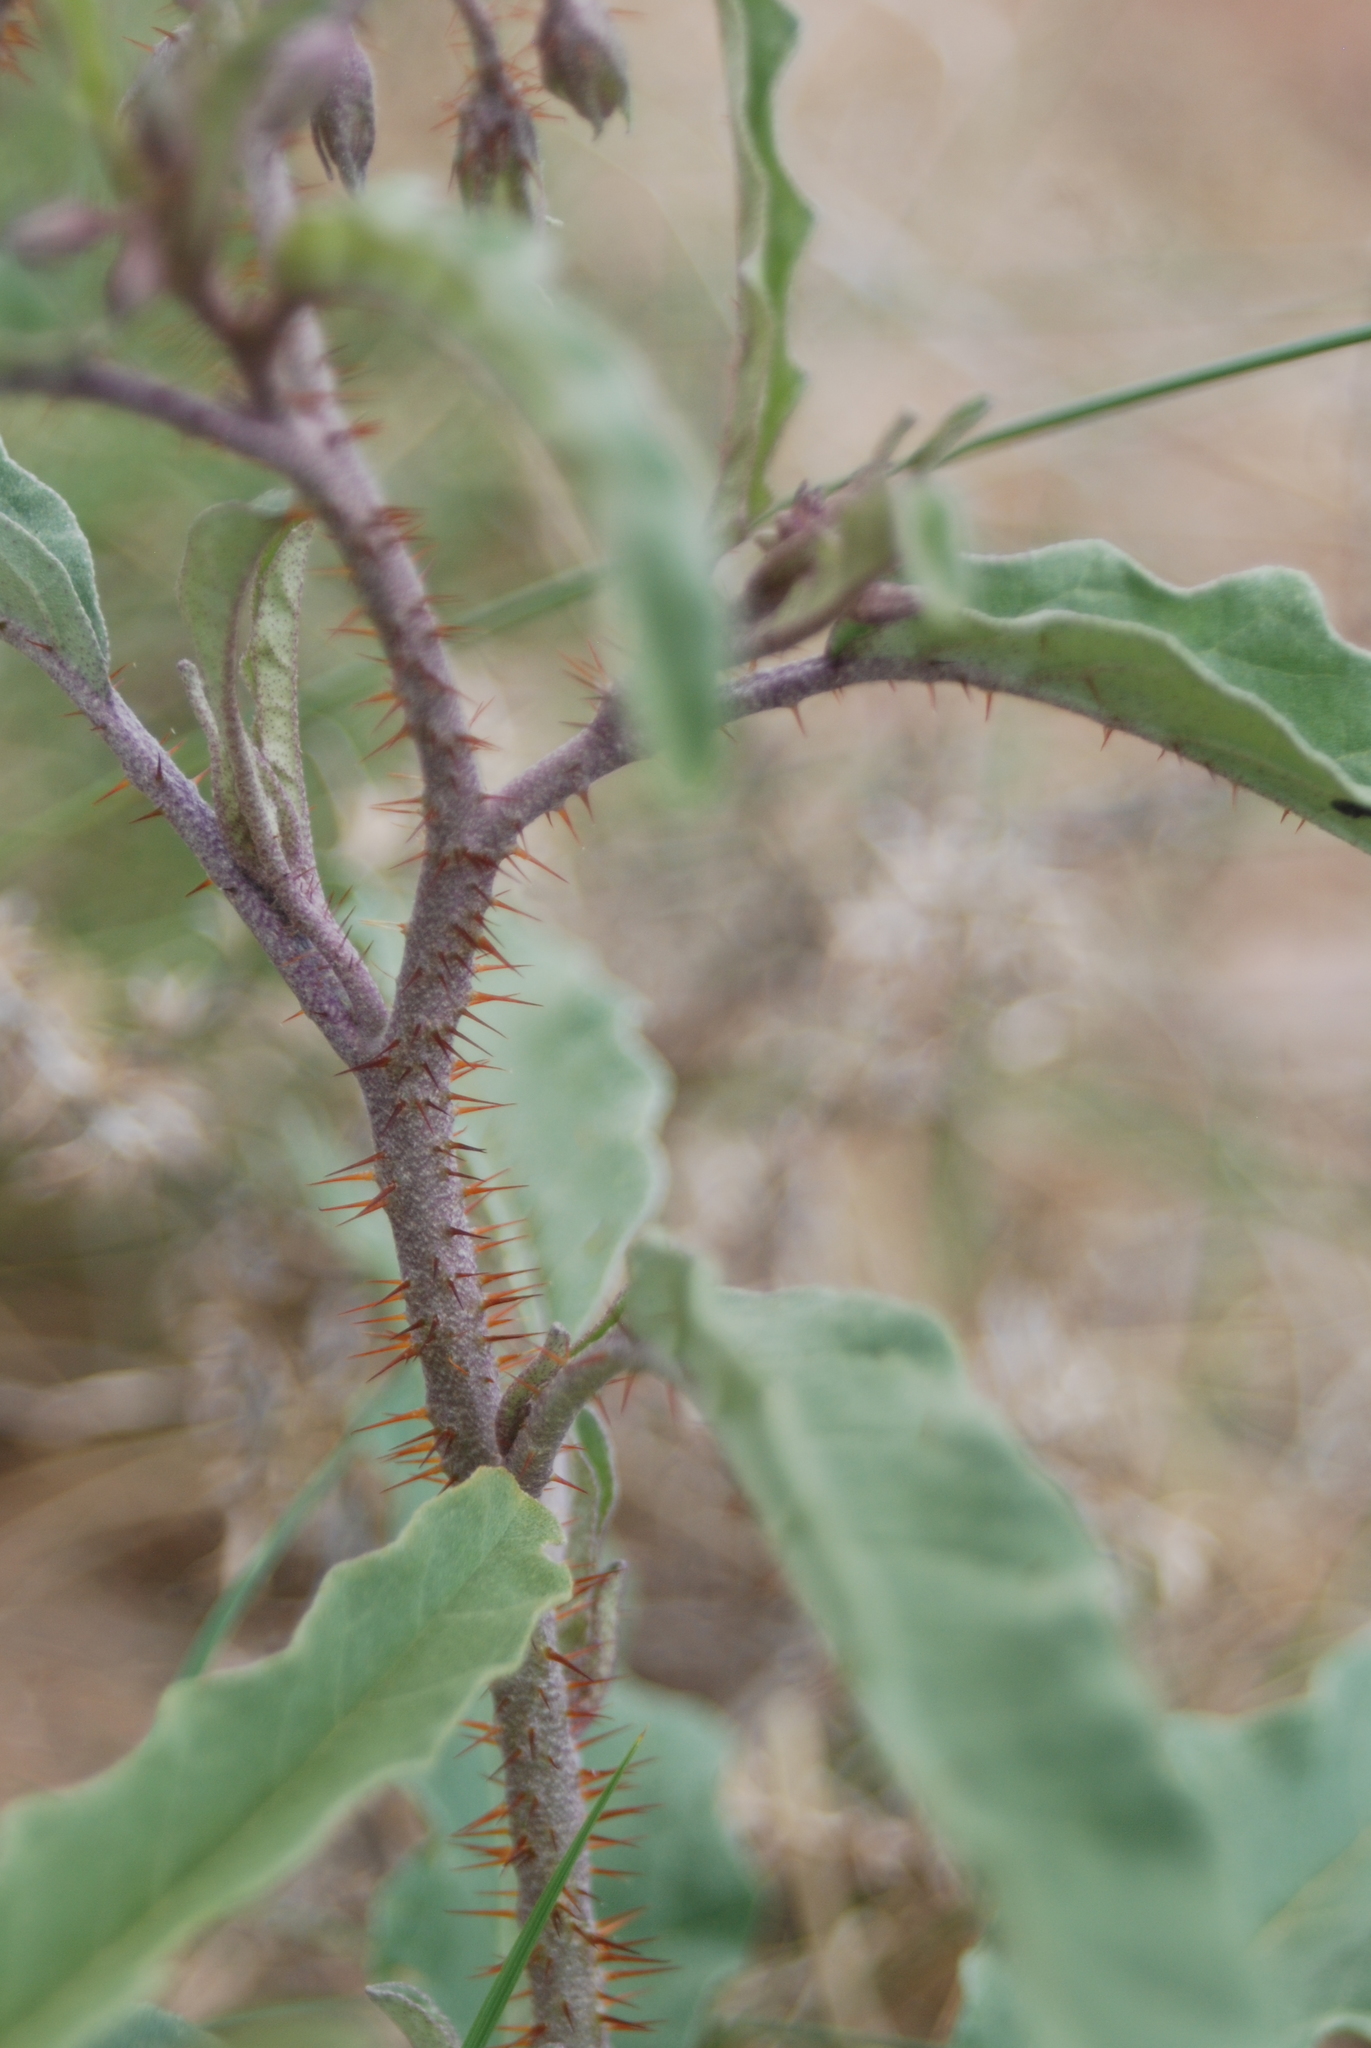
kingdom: Plantae
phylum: Tracheophyta
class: Magnoliopsida
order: Solanales
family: Solanaceae
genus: Solanum
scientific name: Solanum elaeagnifolium
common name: Silverleaf nightshade
